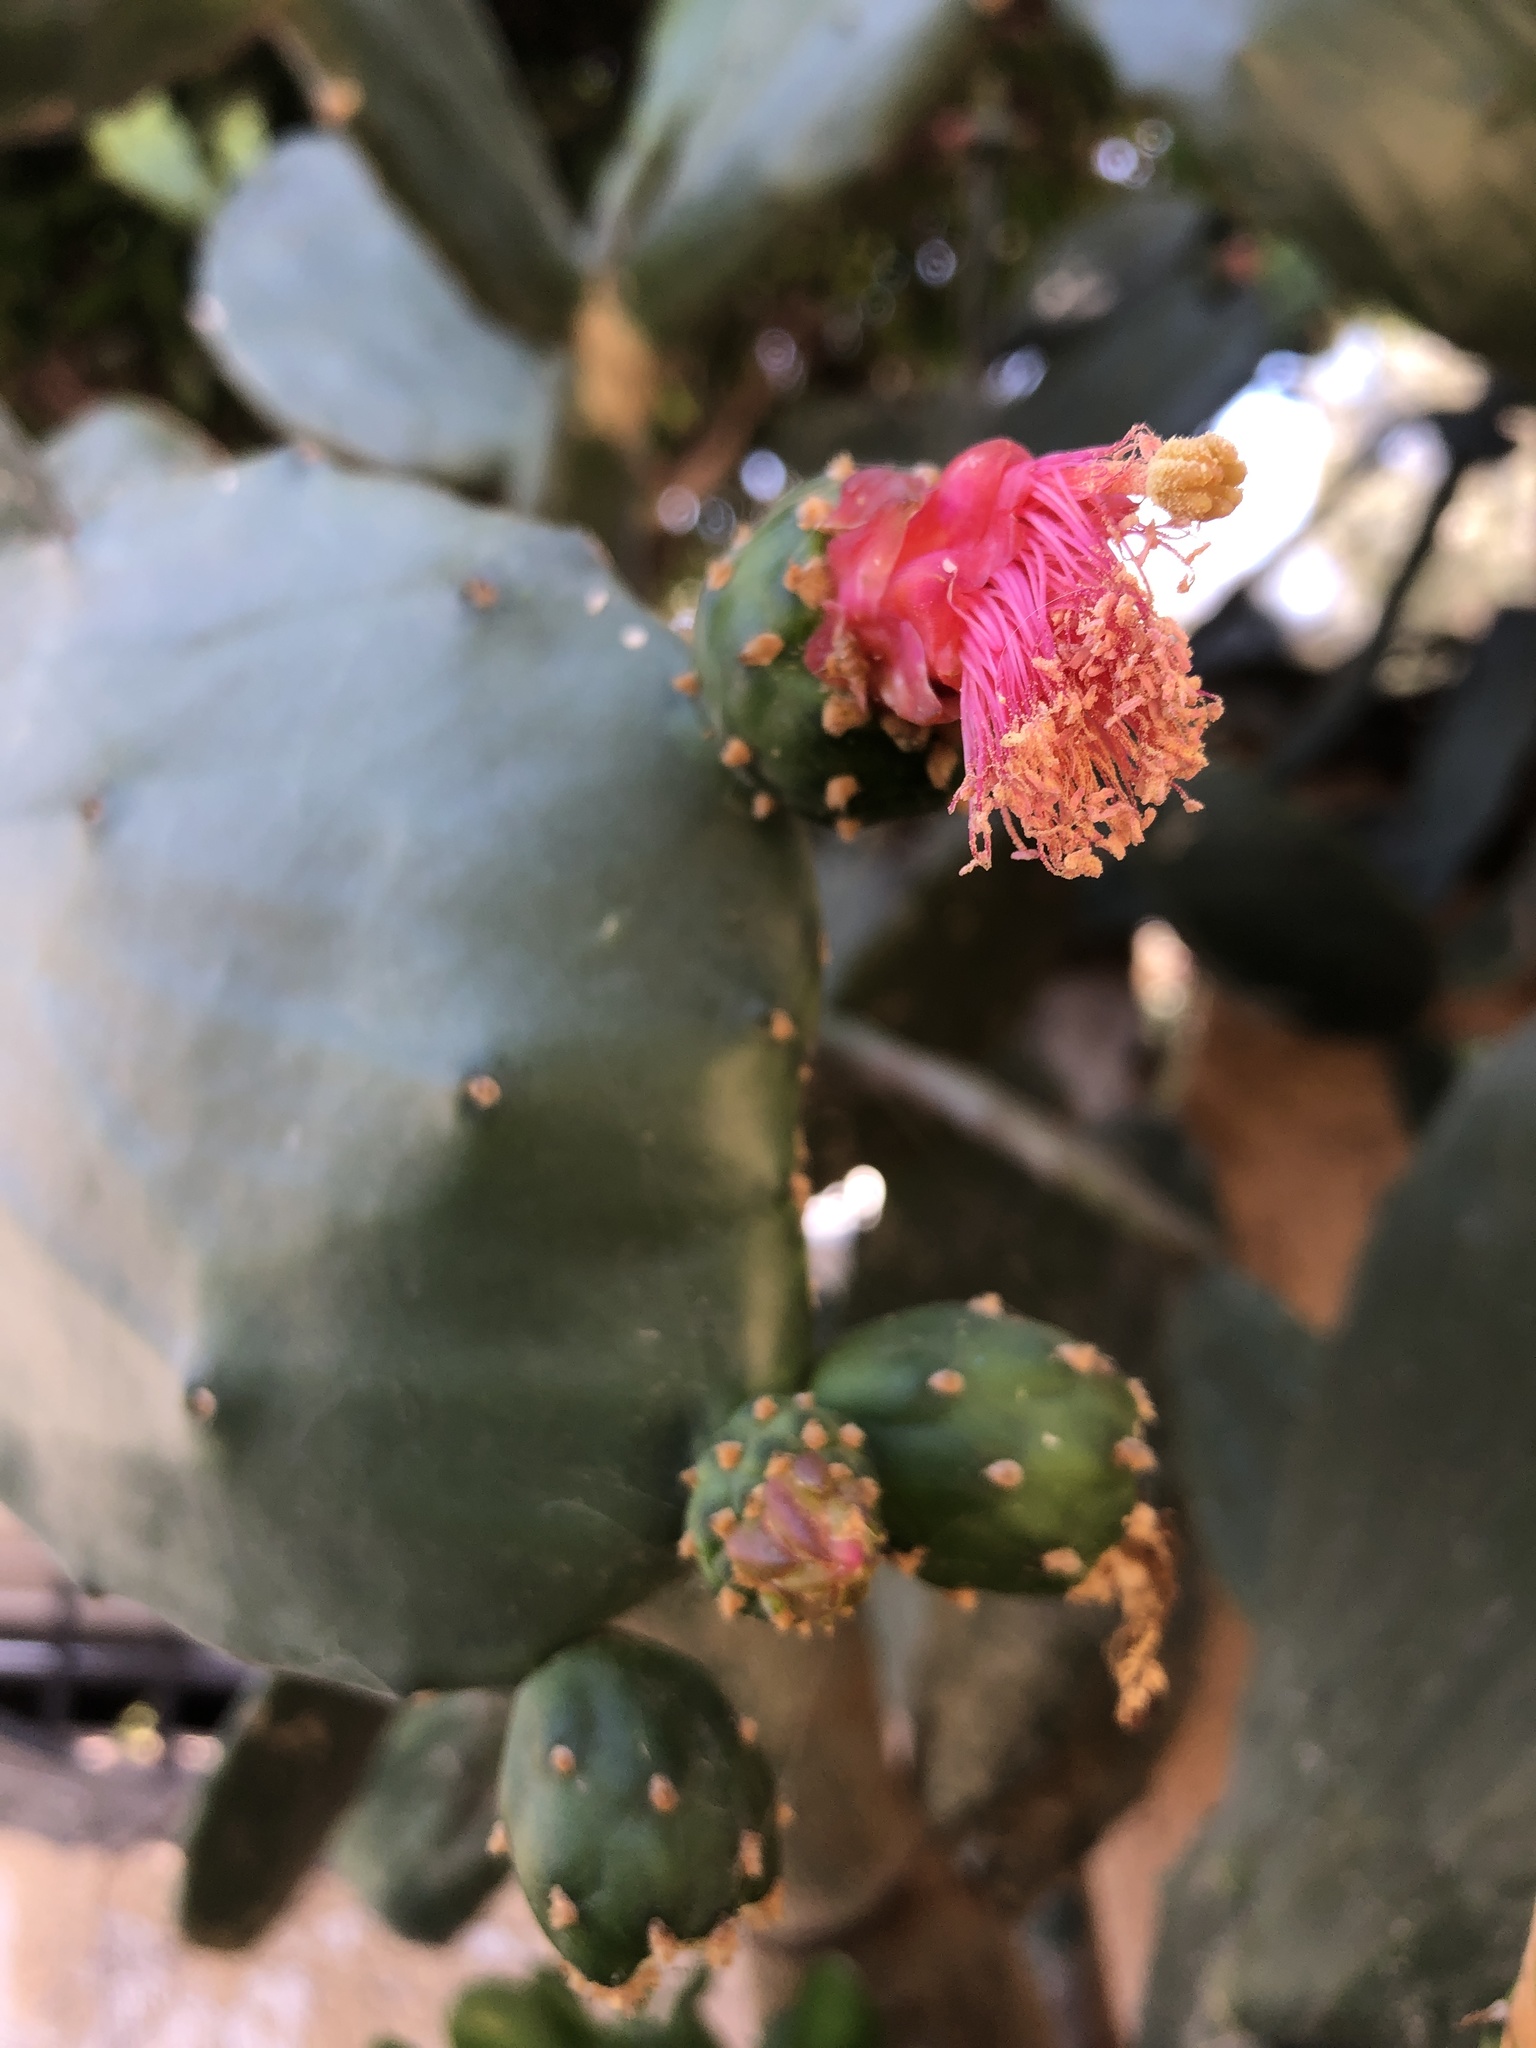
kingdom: Plantae
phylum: Tracheophyta
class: Magnoliopsida
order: Caryophyllales
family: Cactaceae
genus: Opuntia
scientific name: Opuntia cochenillifera
